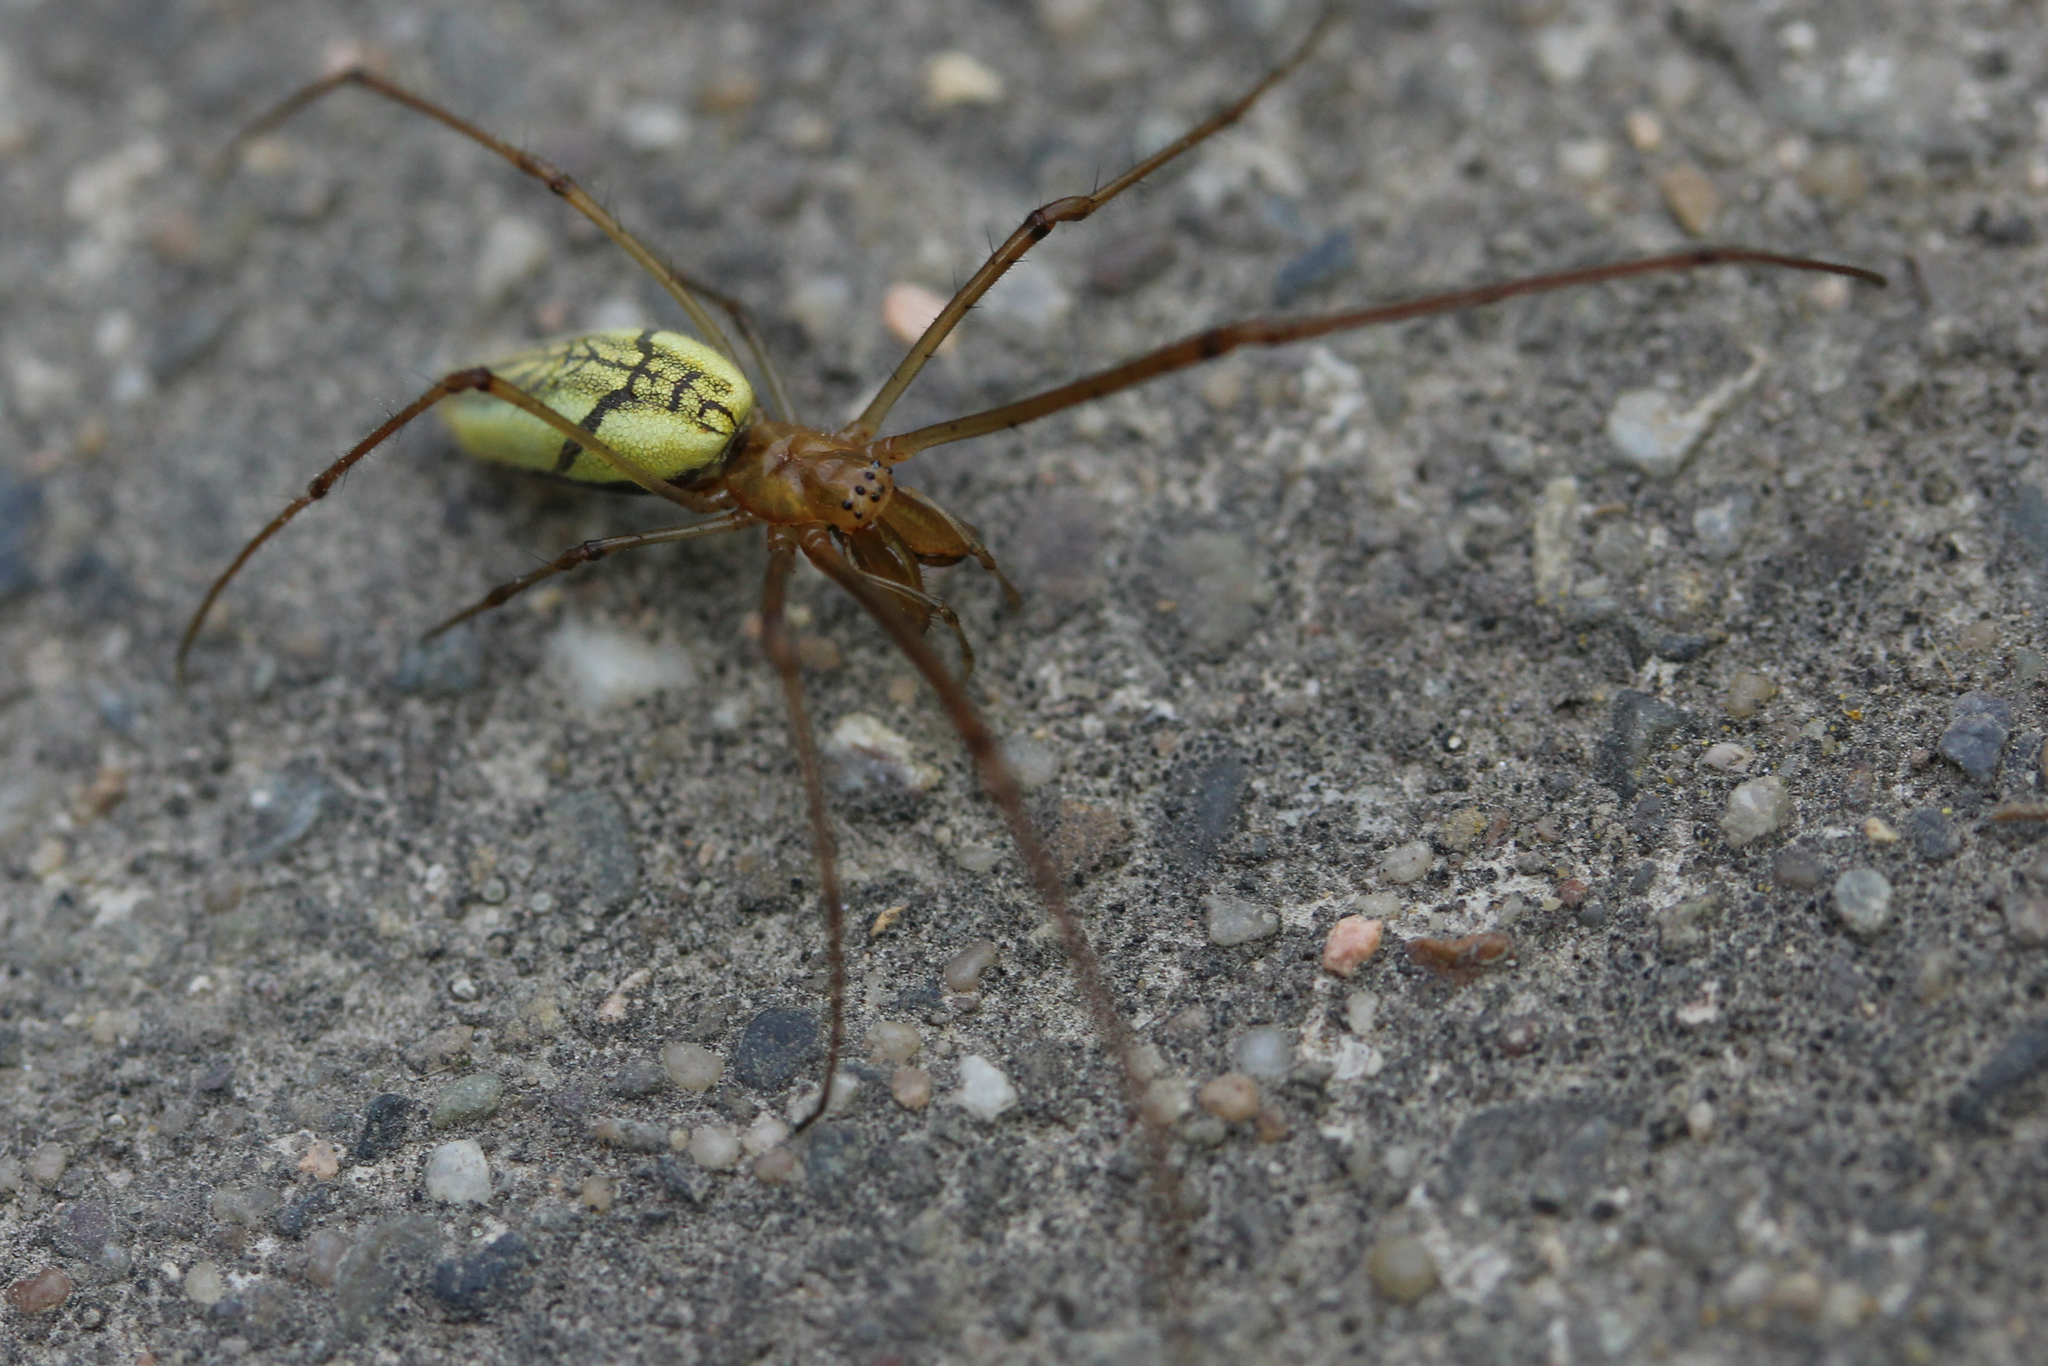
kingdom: Animalia
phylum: Arthropoda
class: Arachnida
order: Araneae
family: Tetragnathidae
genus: Tetragnatha
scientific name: Tetragnatha
